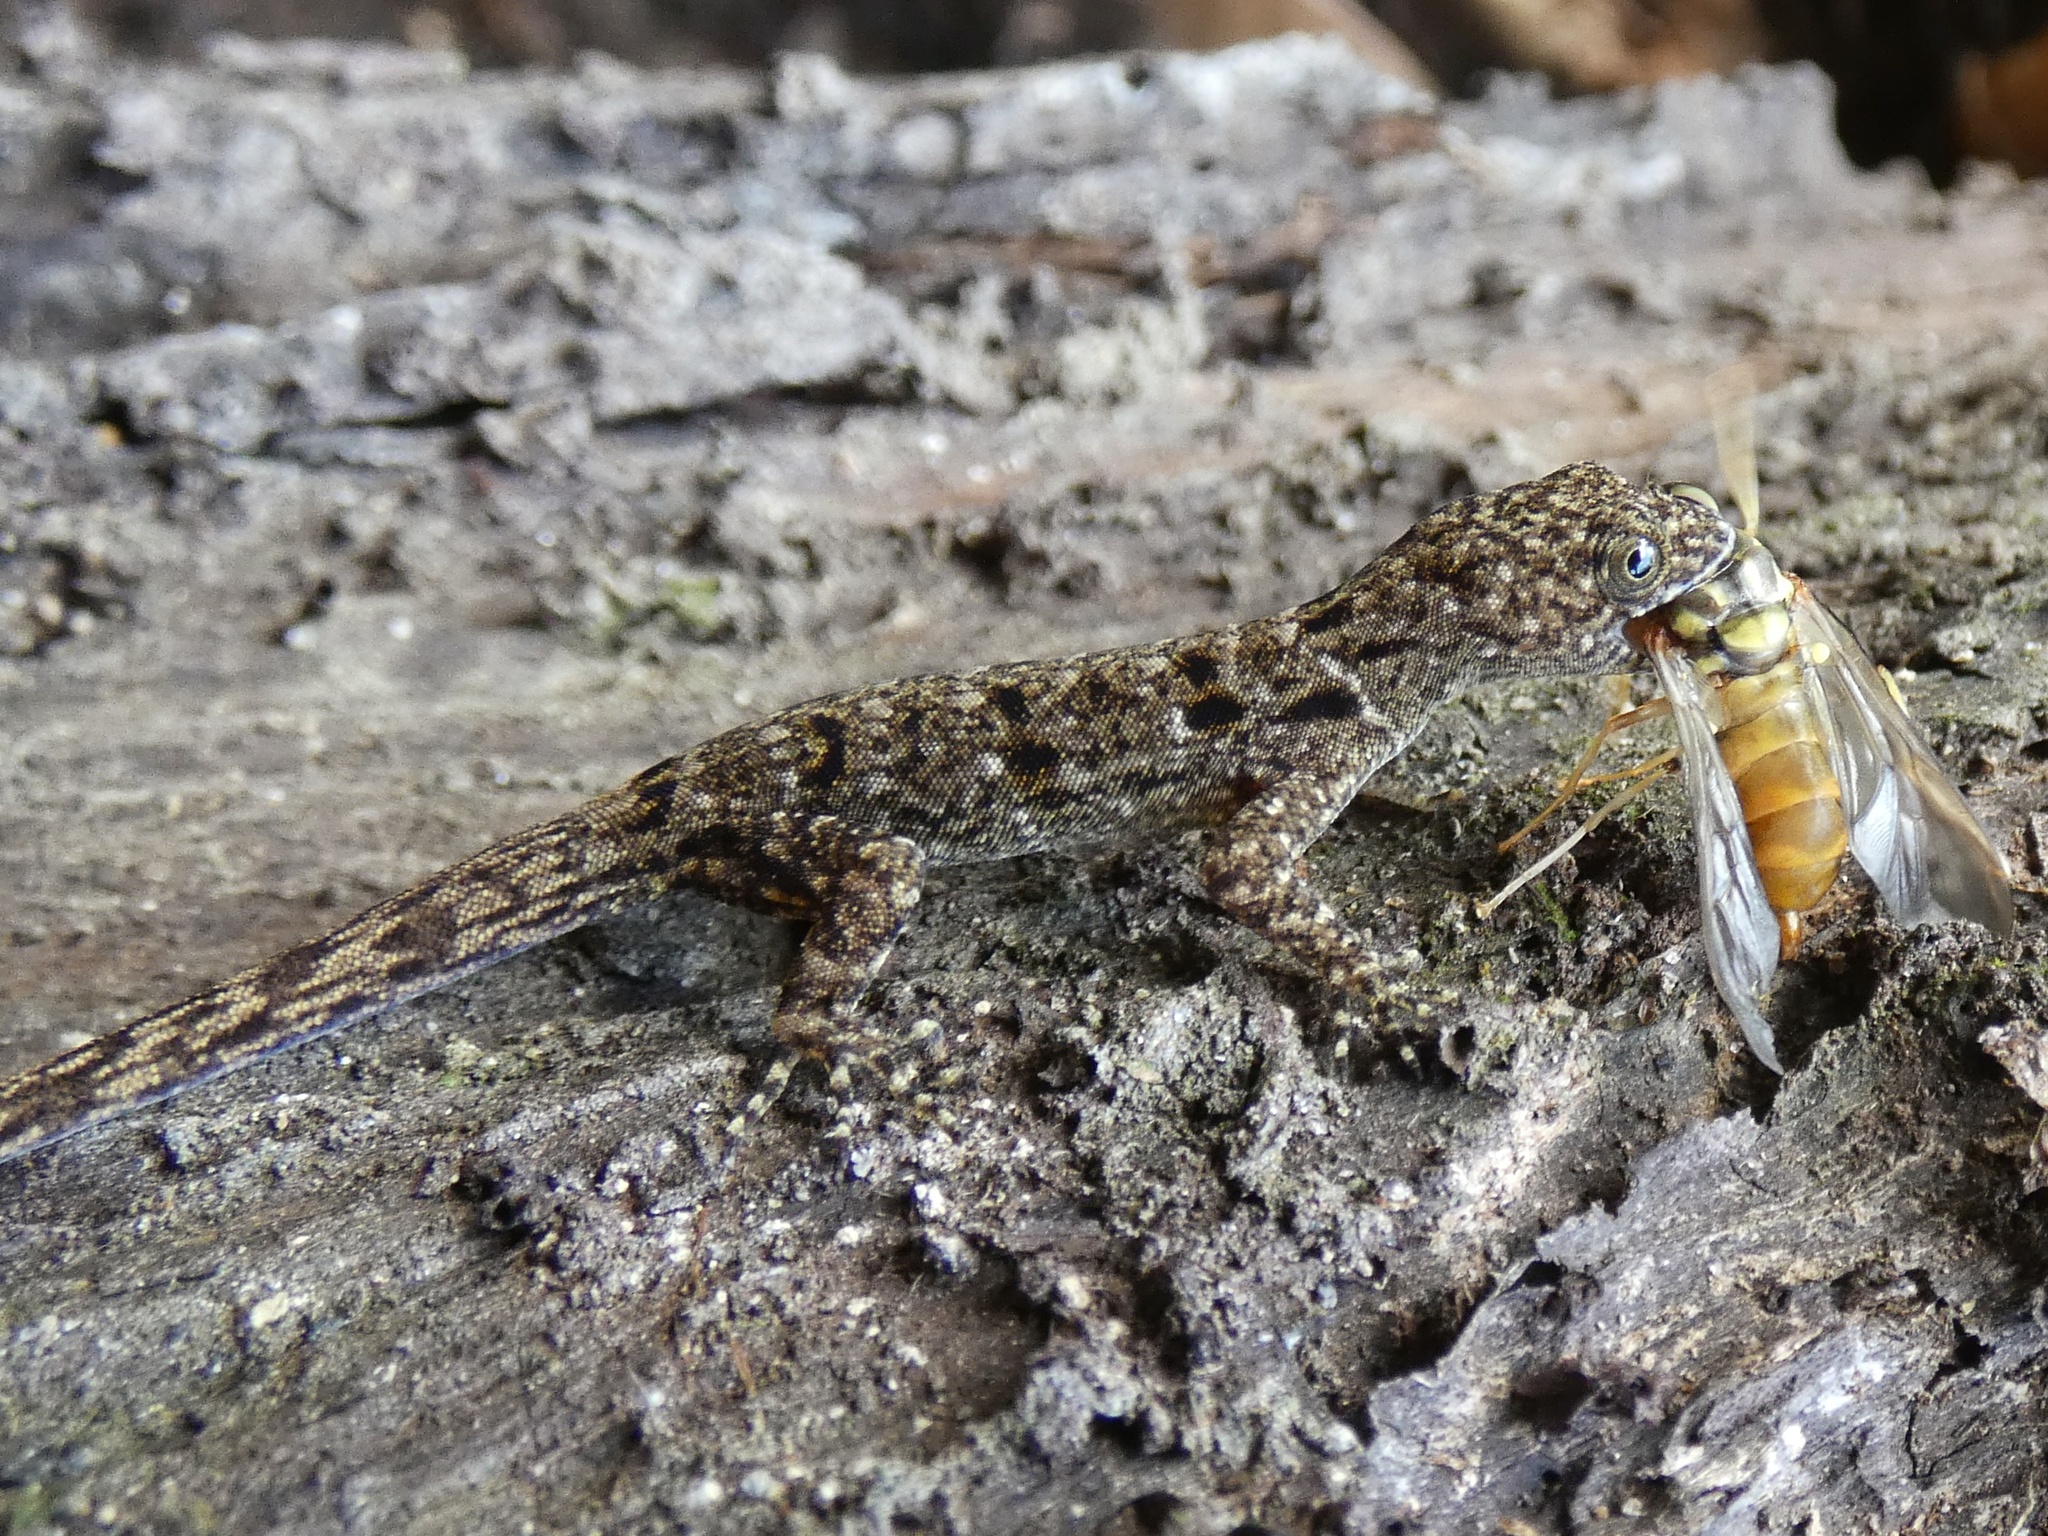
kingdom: Animalia
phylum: Chordata
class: Squamata
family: Sphaerodactylidae
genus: Gonatodes
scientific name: Gonatodes albogularis
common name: Yellow-headed gecko
